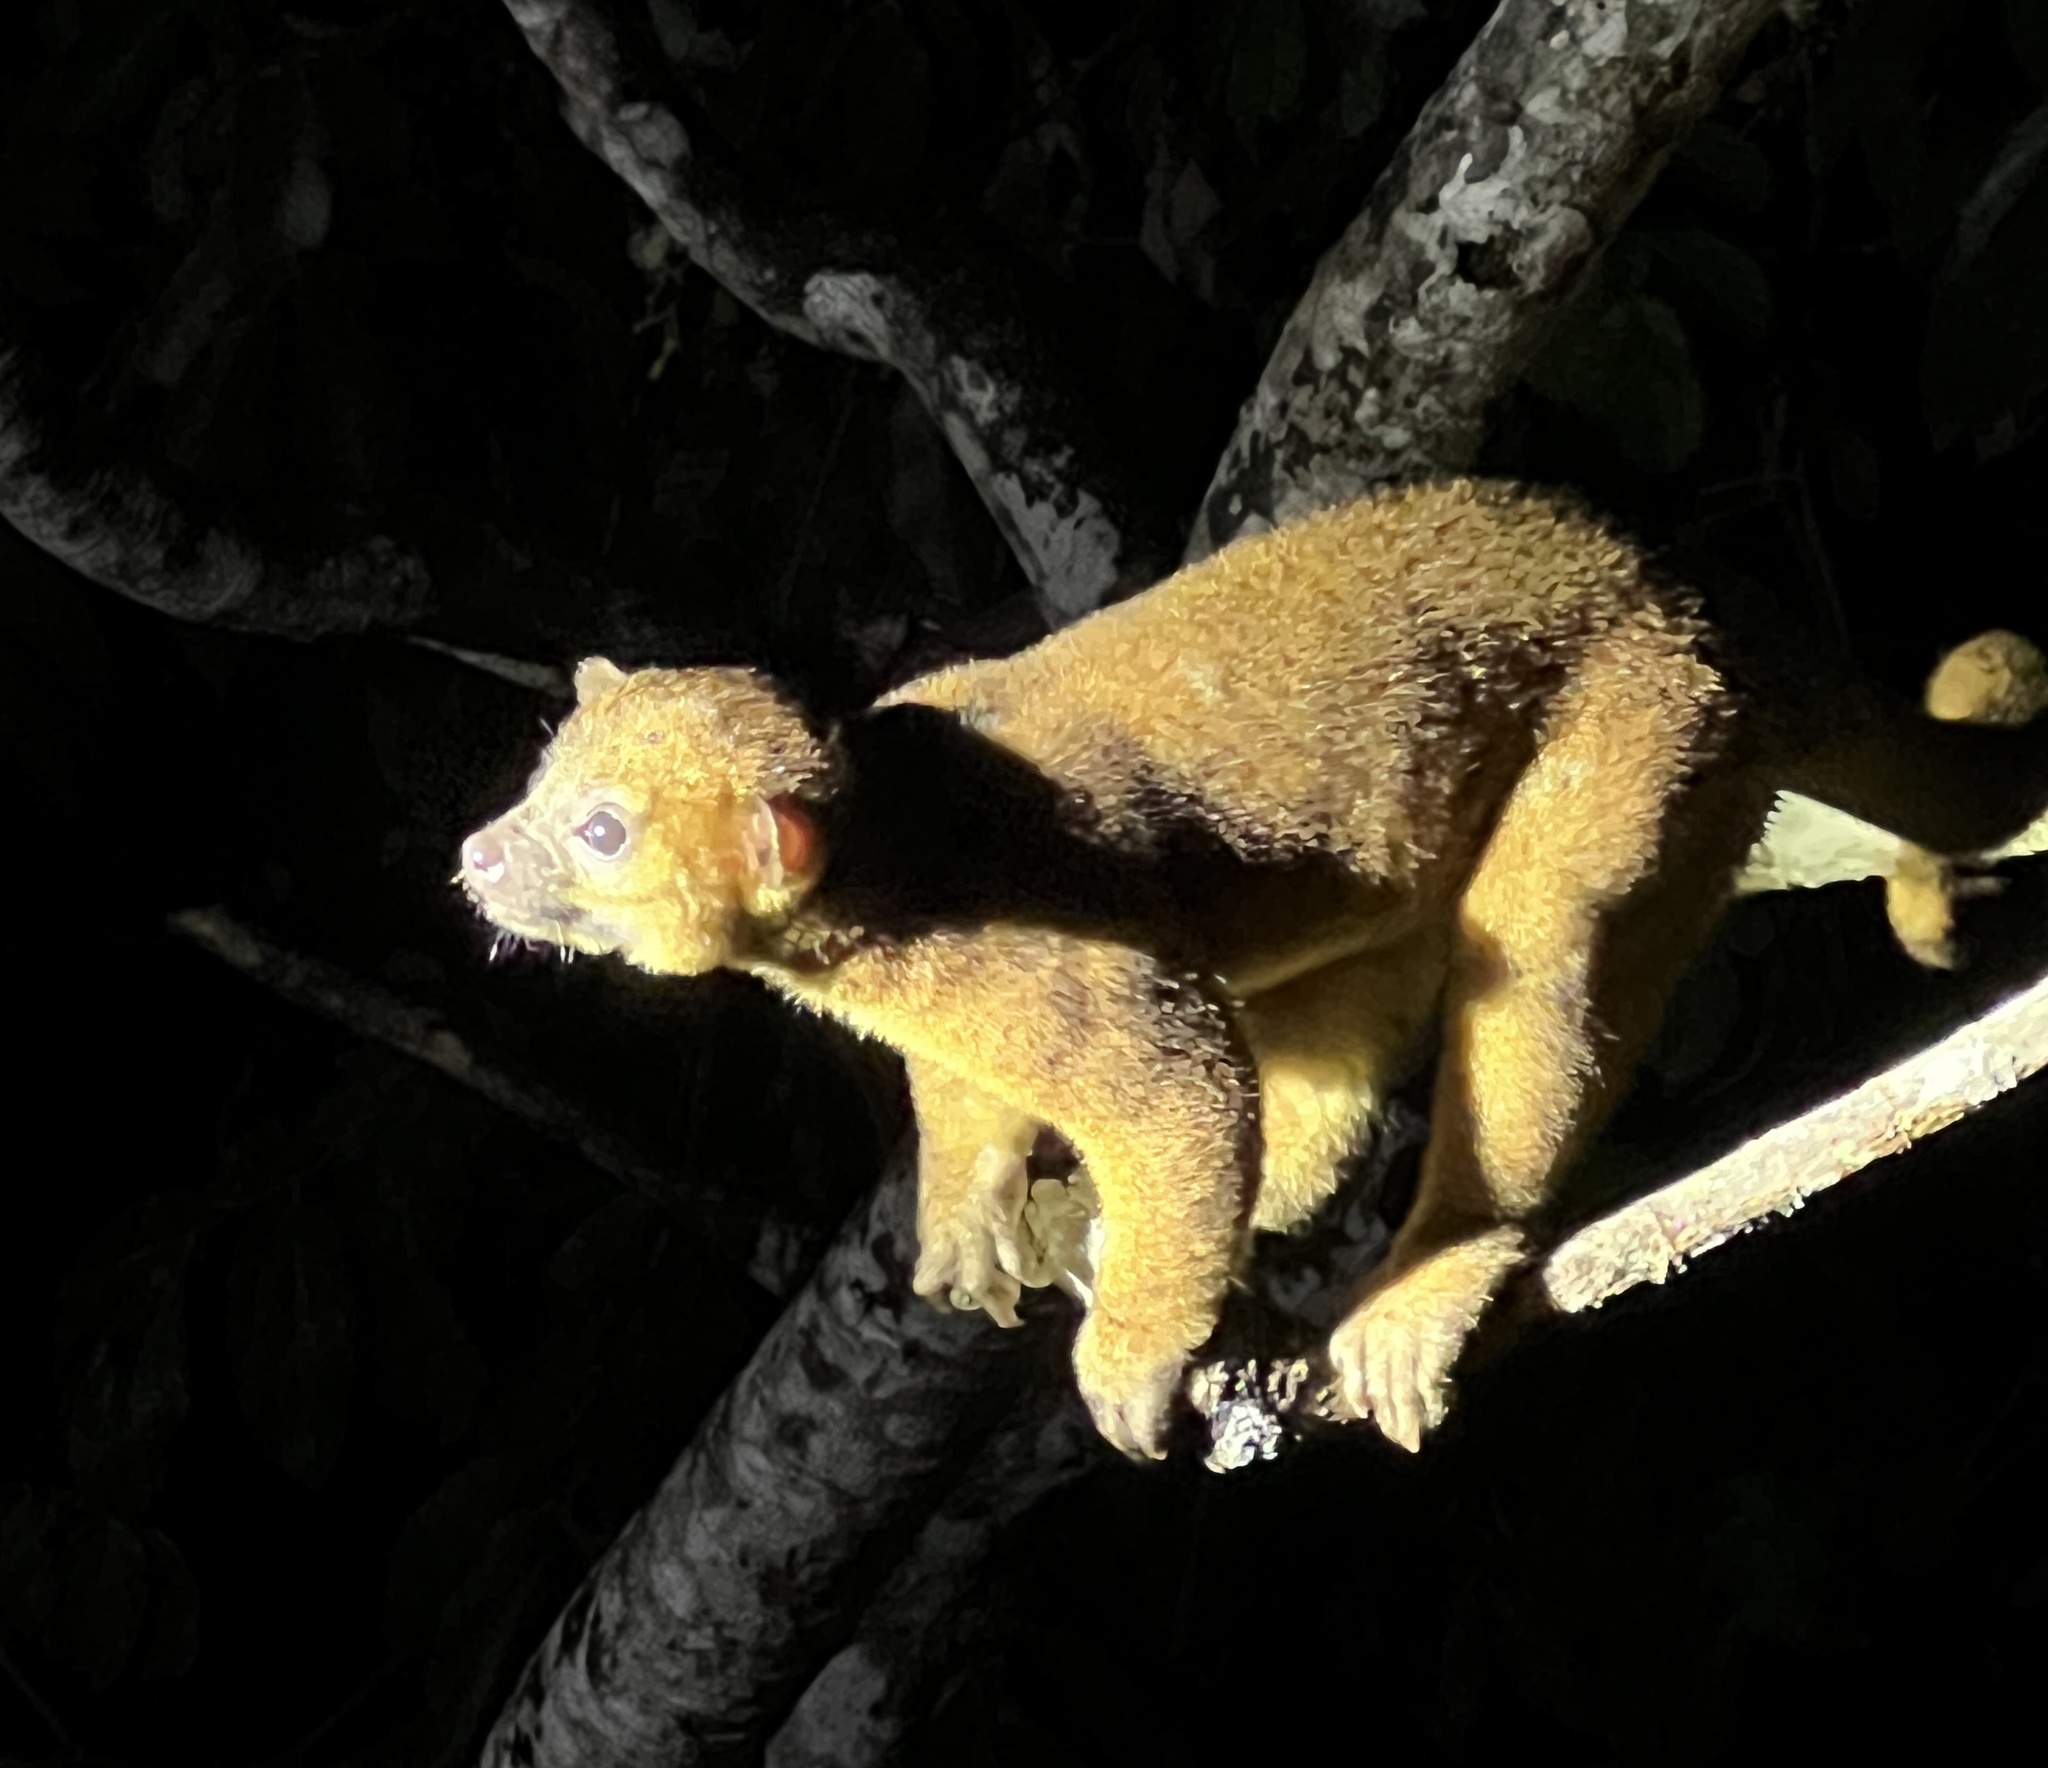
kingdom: Animalia
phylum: Chordata
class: Mammalia
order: Carnivora
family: Procyonidae
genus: Potos
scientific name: Potos flavus
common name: Kinkajou
